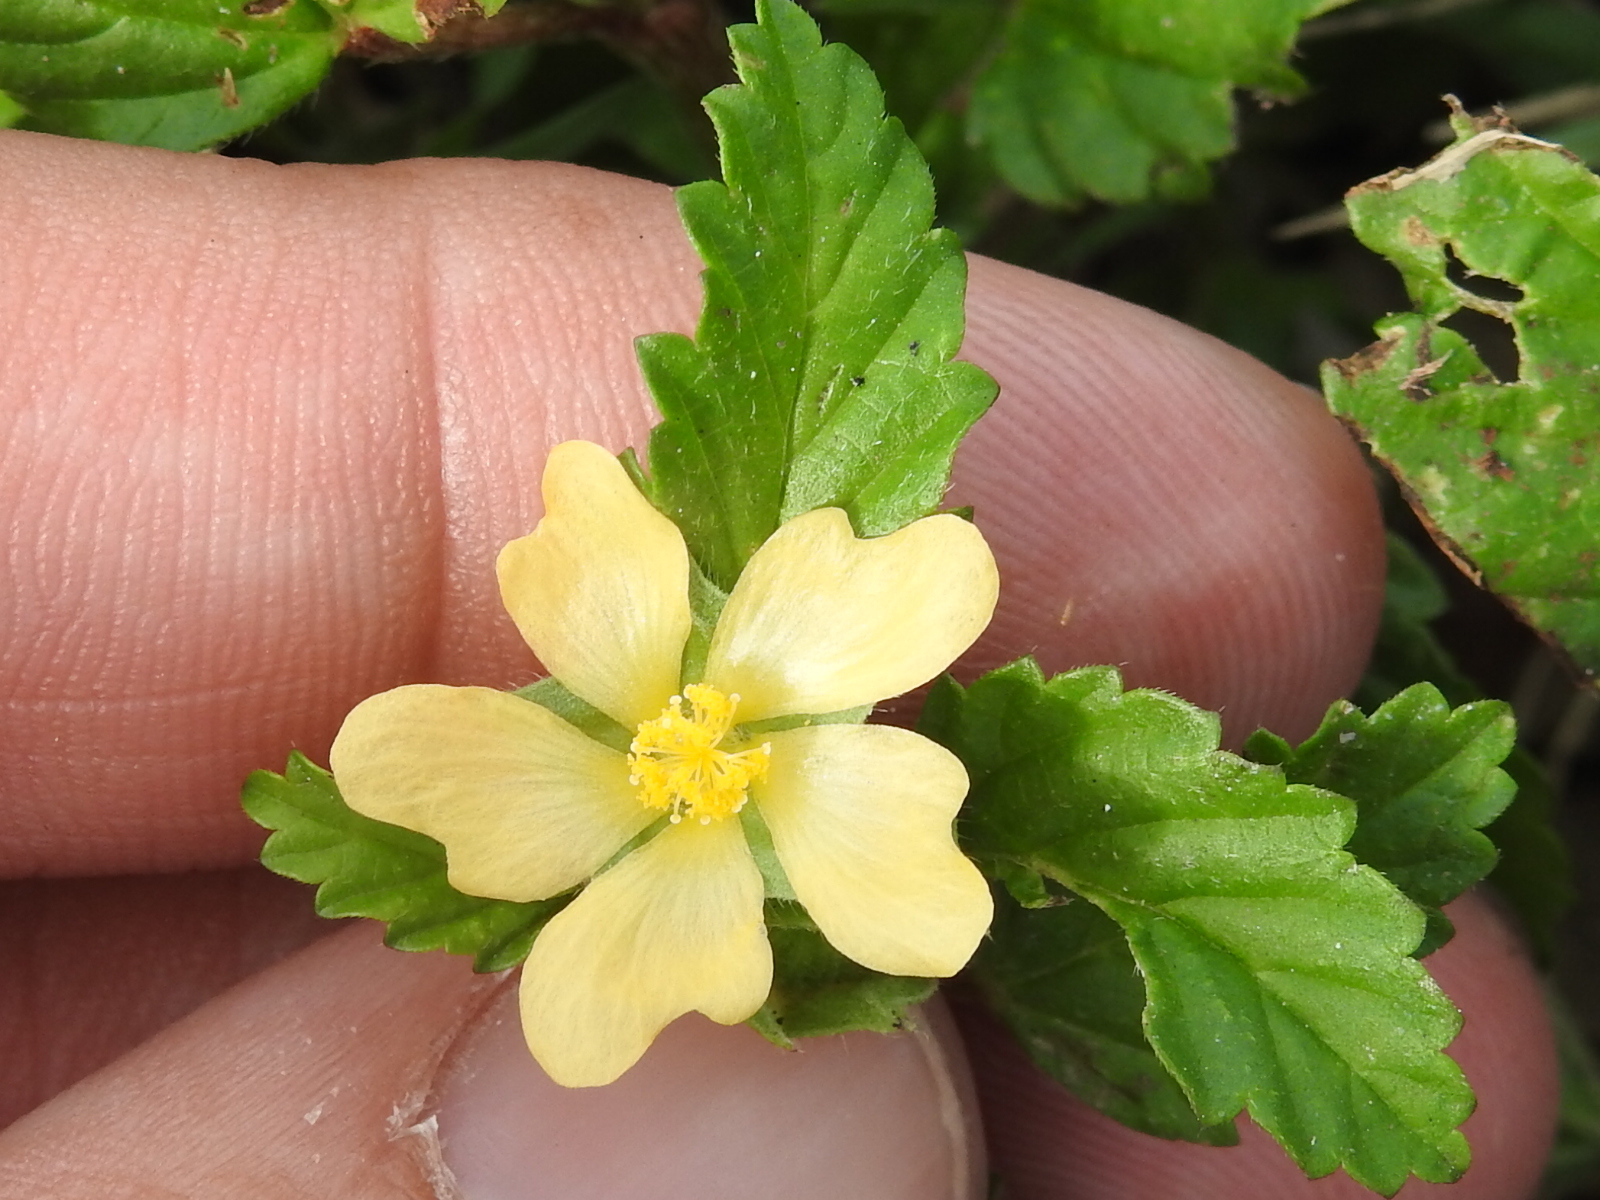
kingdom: Plantae
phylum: Tracheophyta
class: Magnoliopsida
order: Malvales
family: Malvaceae
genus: Malvastrum
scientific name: Malvastrum coromandelianum
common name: Threelobe false mallow
